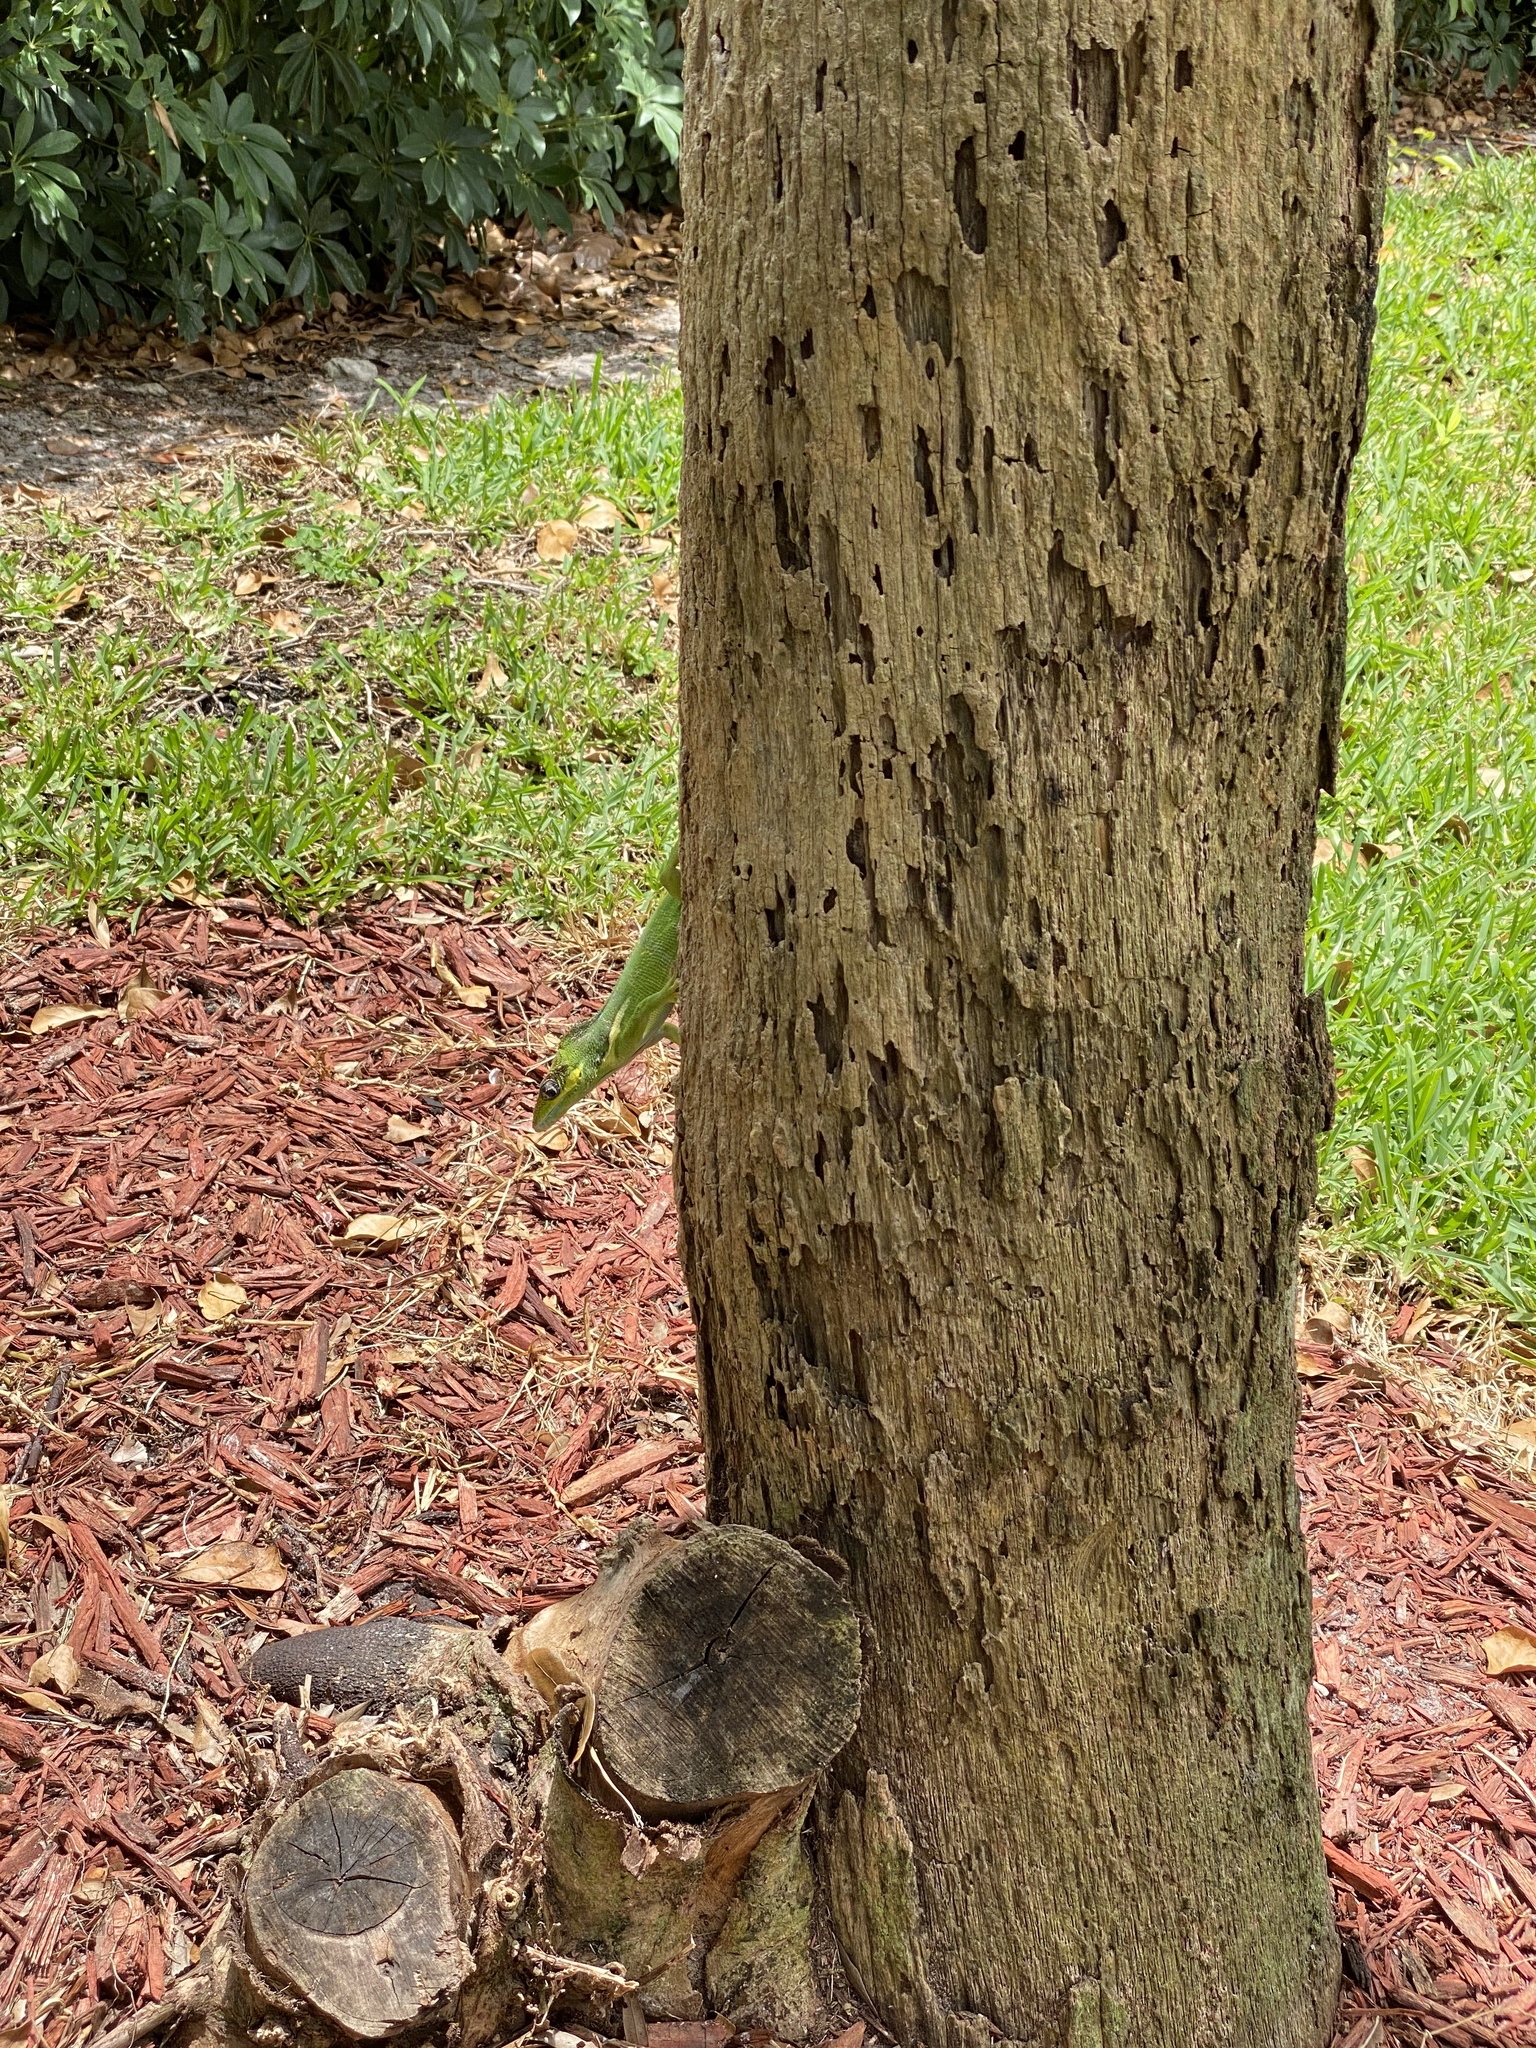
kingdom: Animalia
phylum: Chordata
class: Squamata
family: Dactyloidae
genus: Anolis
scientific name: Anolis equestris
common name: Knight anole
